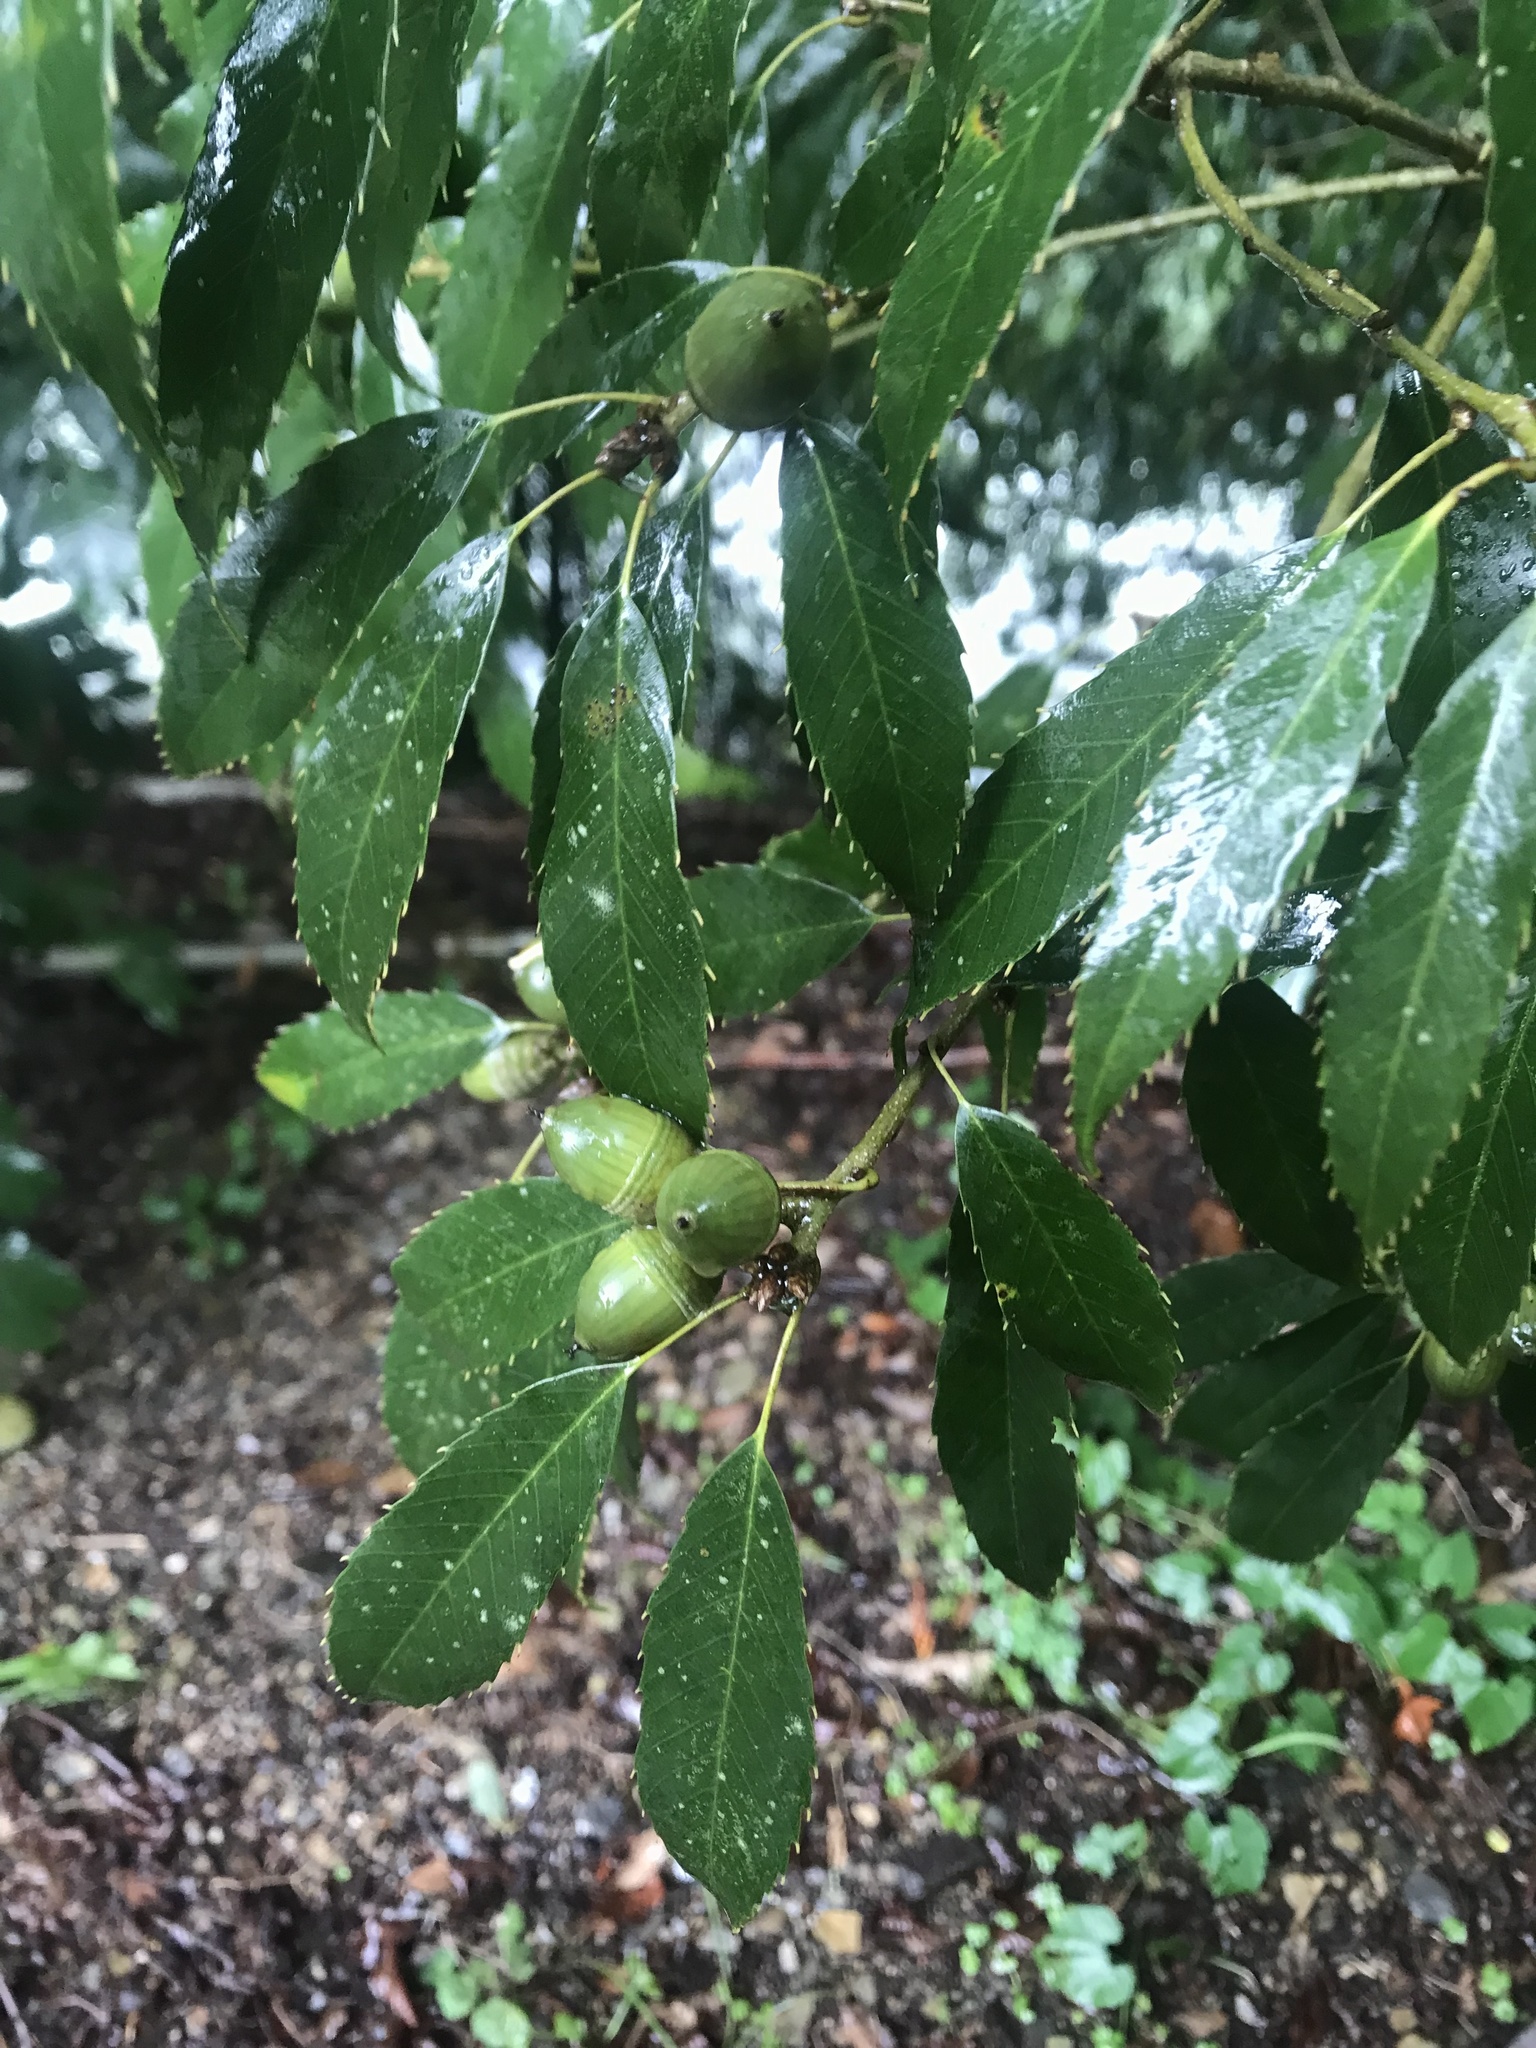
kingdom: Plantae
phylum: Tracheophyta
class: Magnoliopsida
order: Fagales
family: Fagaceae
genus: Quercus
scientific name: Quercus stenophylloides
